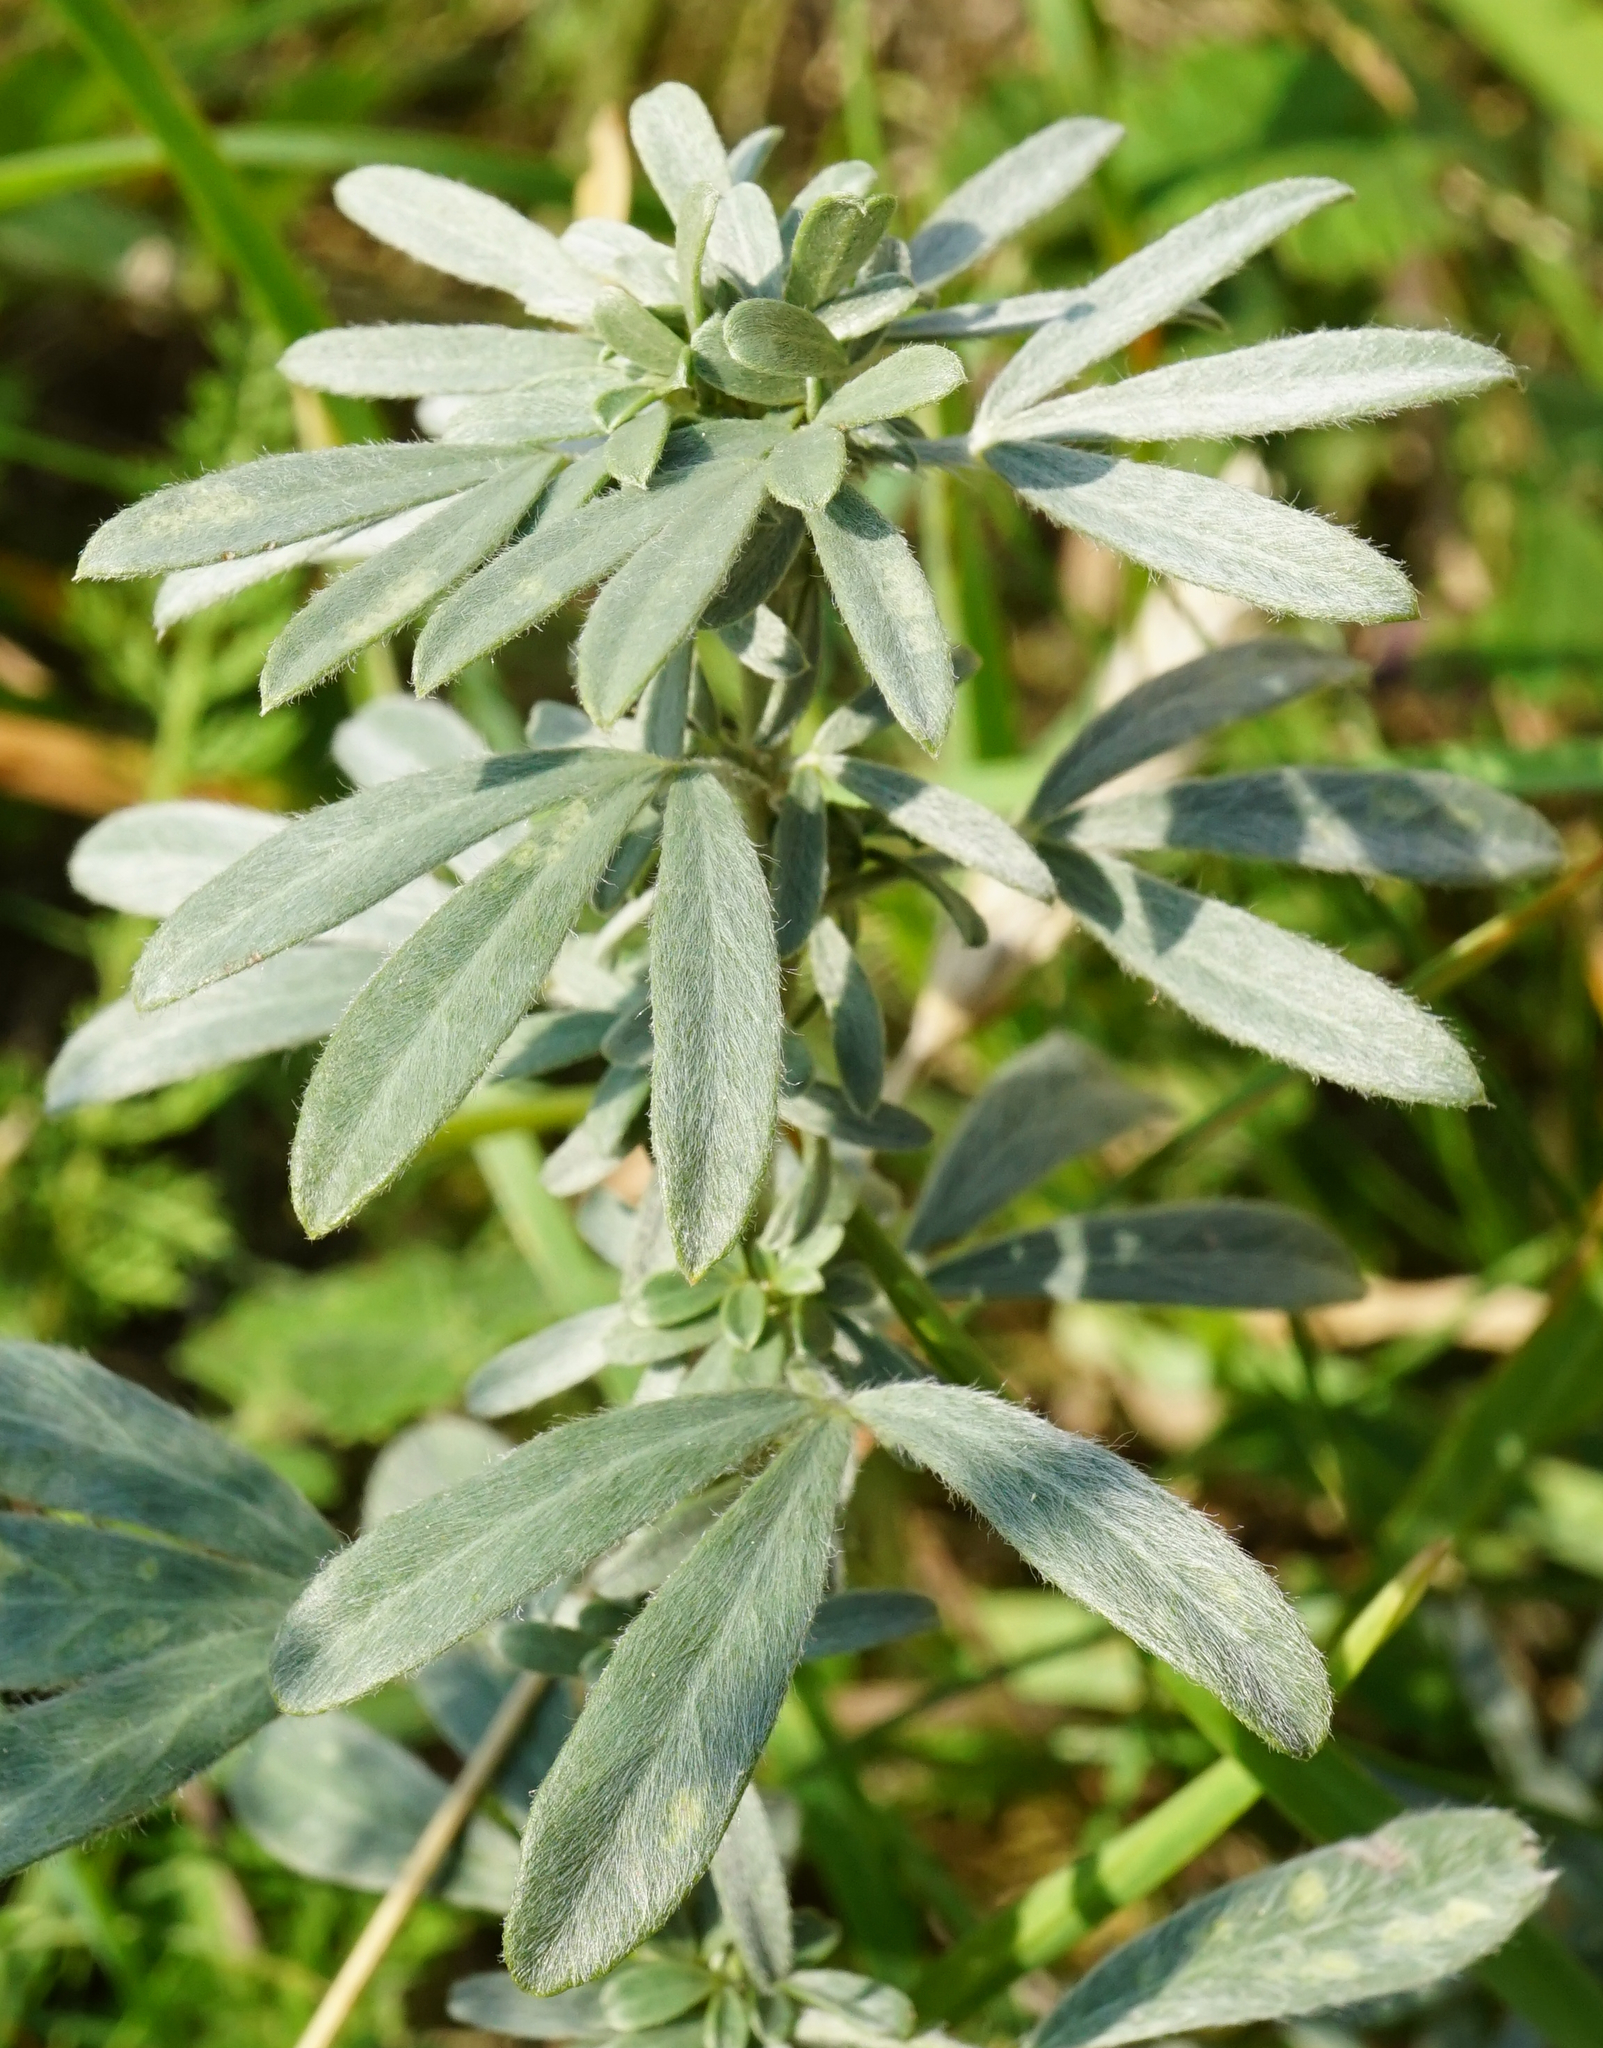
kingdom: Plantae
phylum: Tracheophyta
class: Magnoliopsida
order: Fabales
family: Fabaceae
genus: Chamaecytisus
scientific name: Chamaecytisus austriacus
